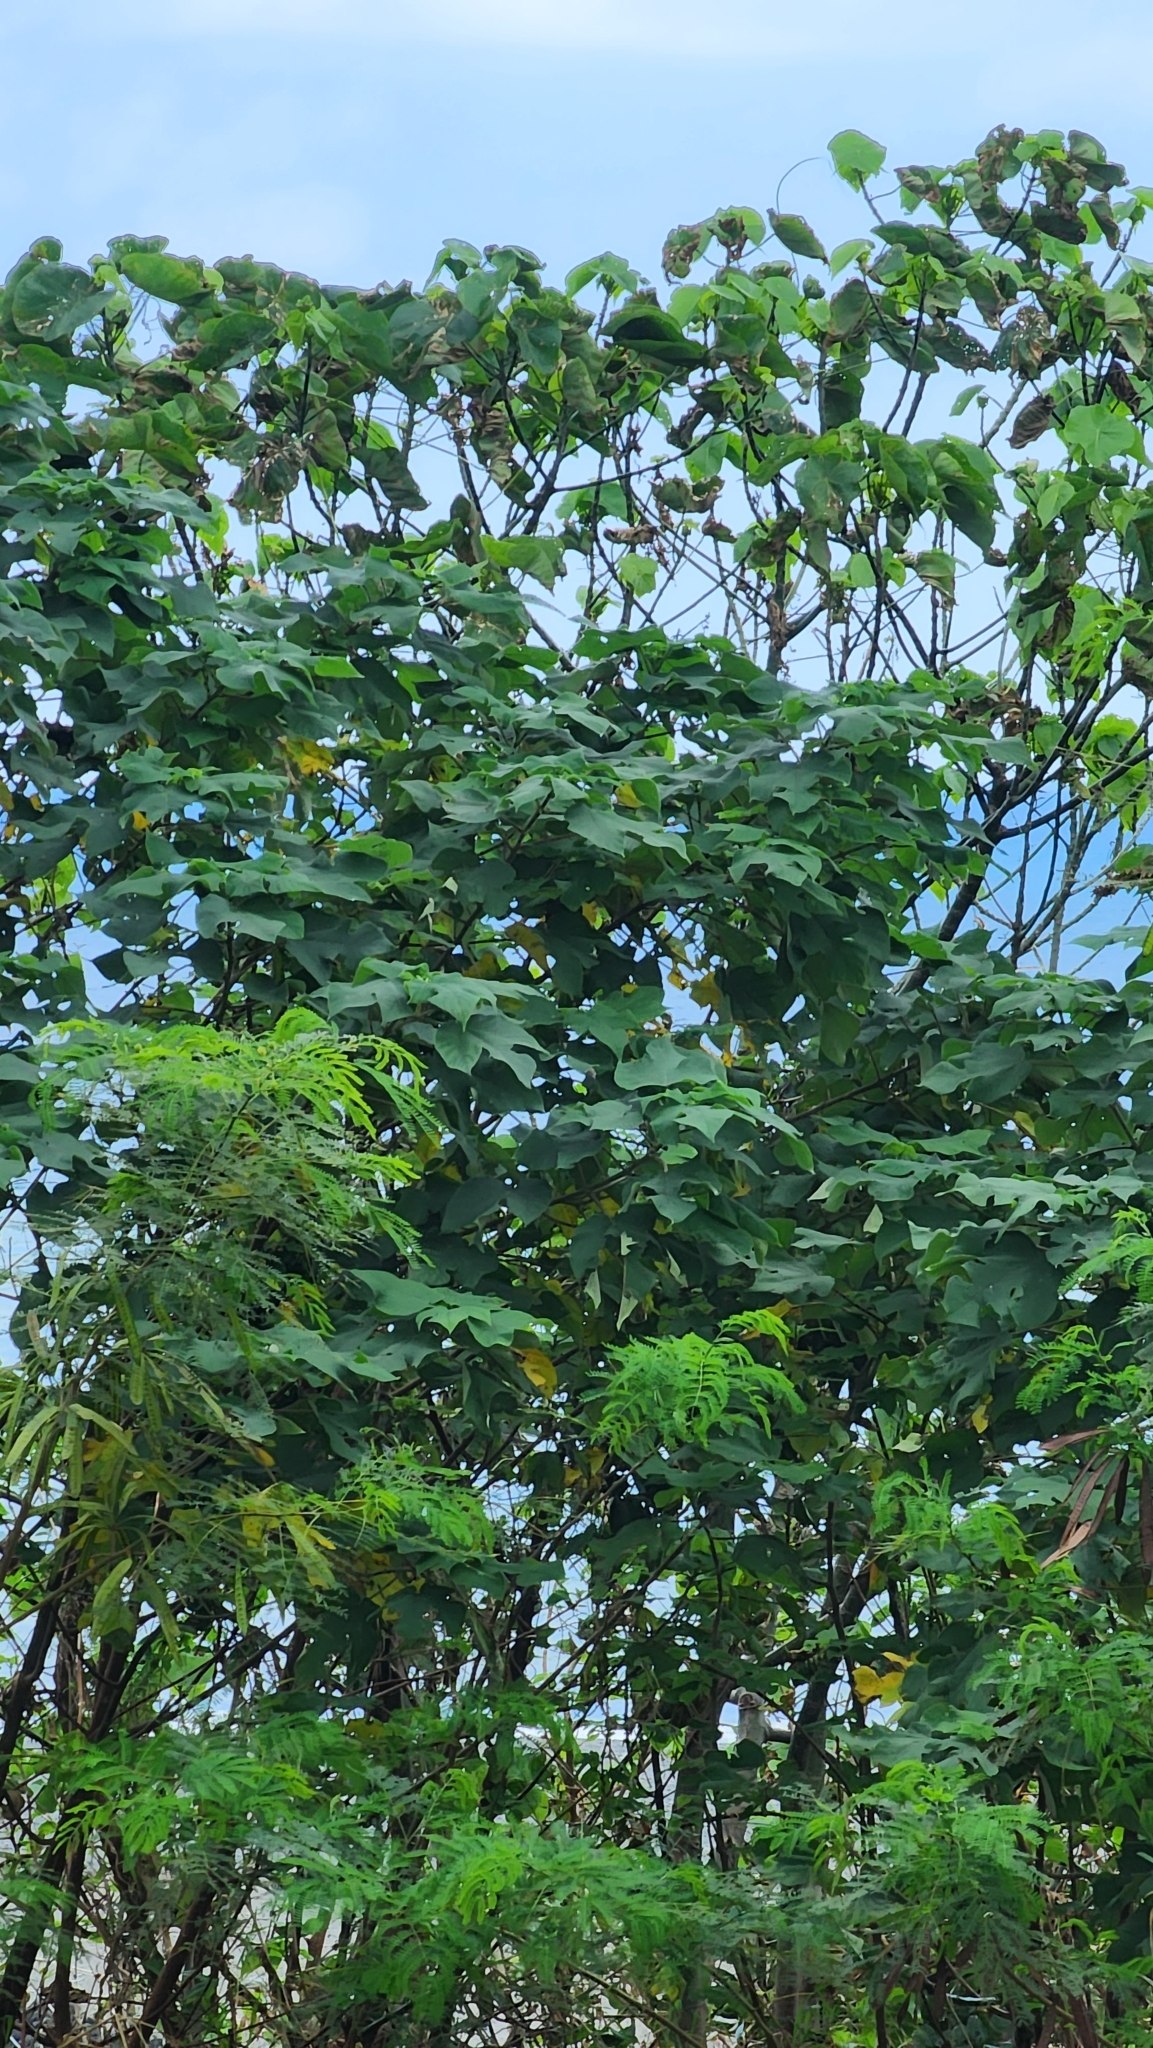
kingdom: Plantae
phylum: Tracheophyta
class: Magnoliopsida
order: Rosales
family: Moraceae
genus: Broussonetia
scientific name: Broussonetia papyrifera
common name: Paper mulberry
